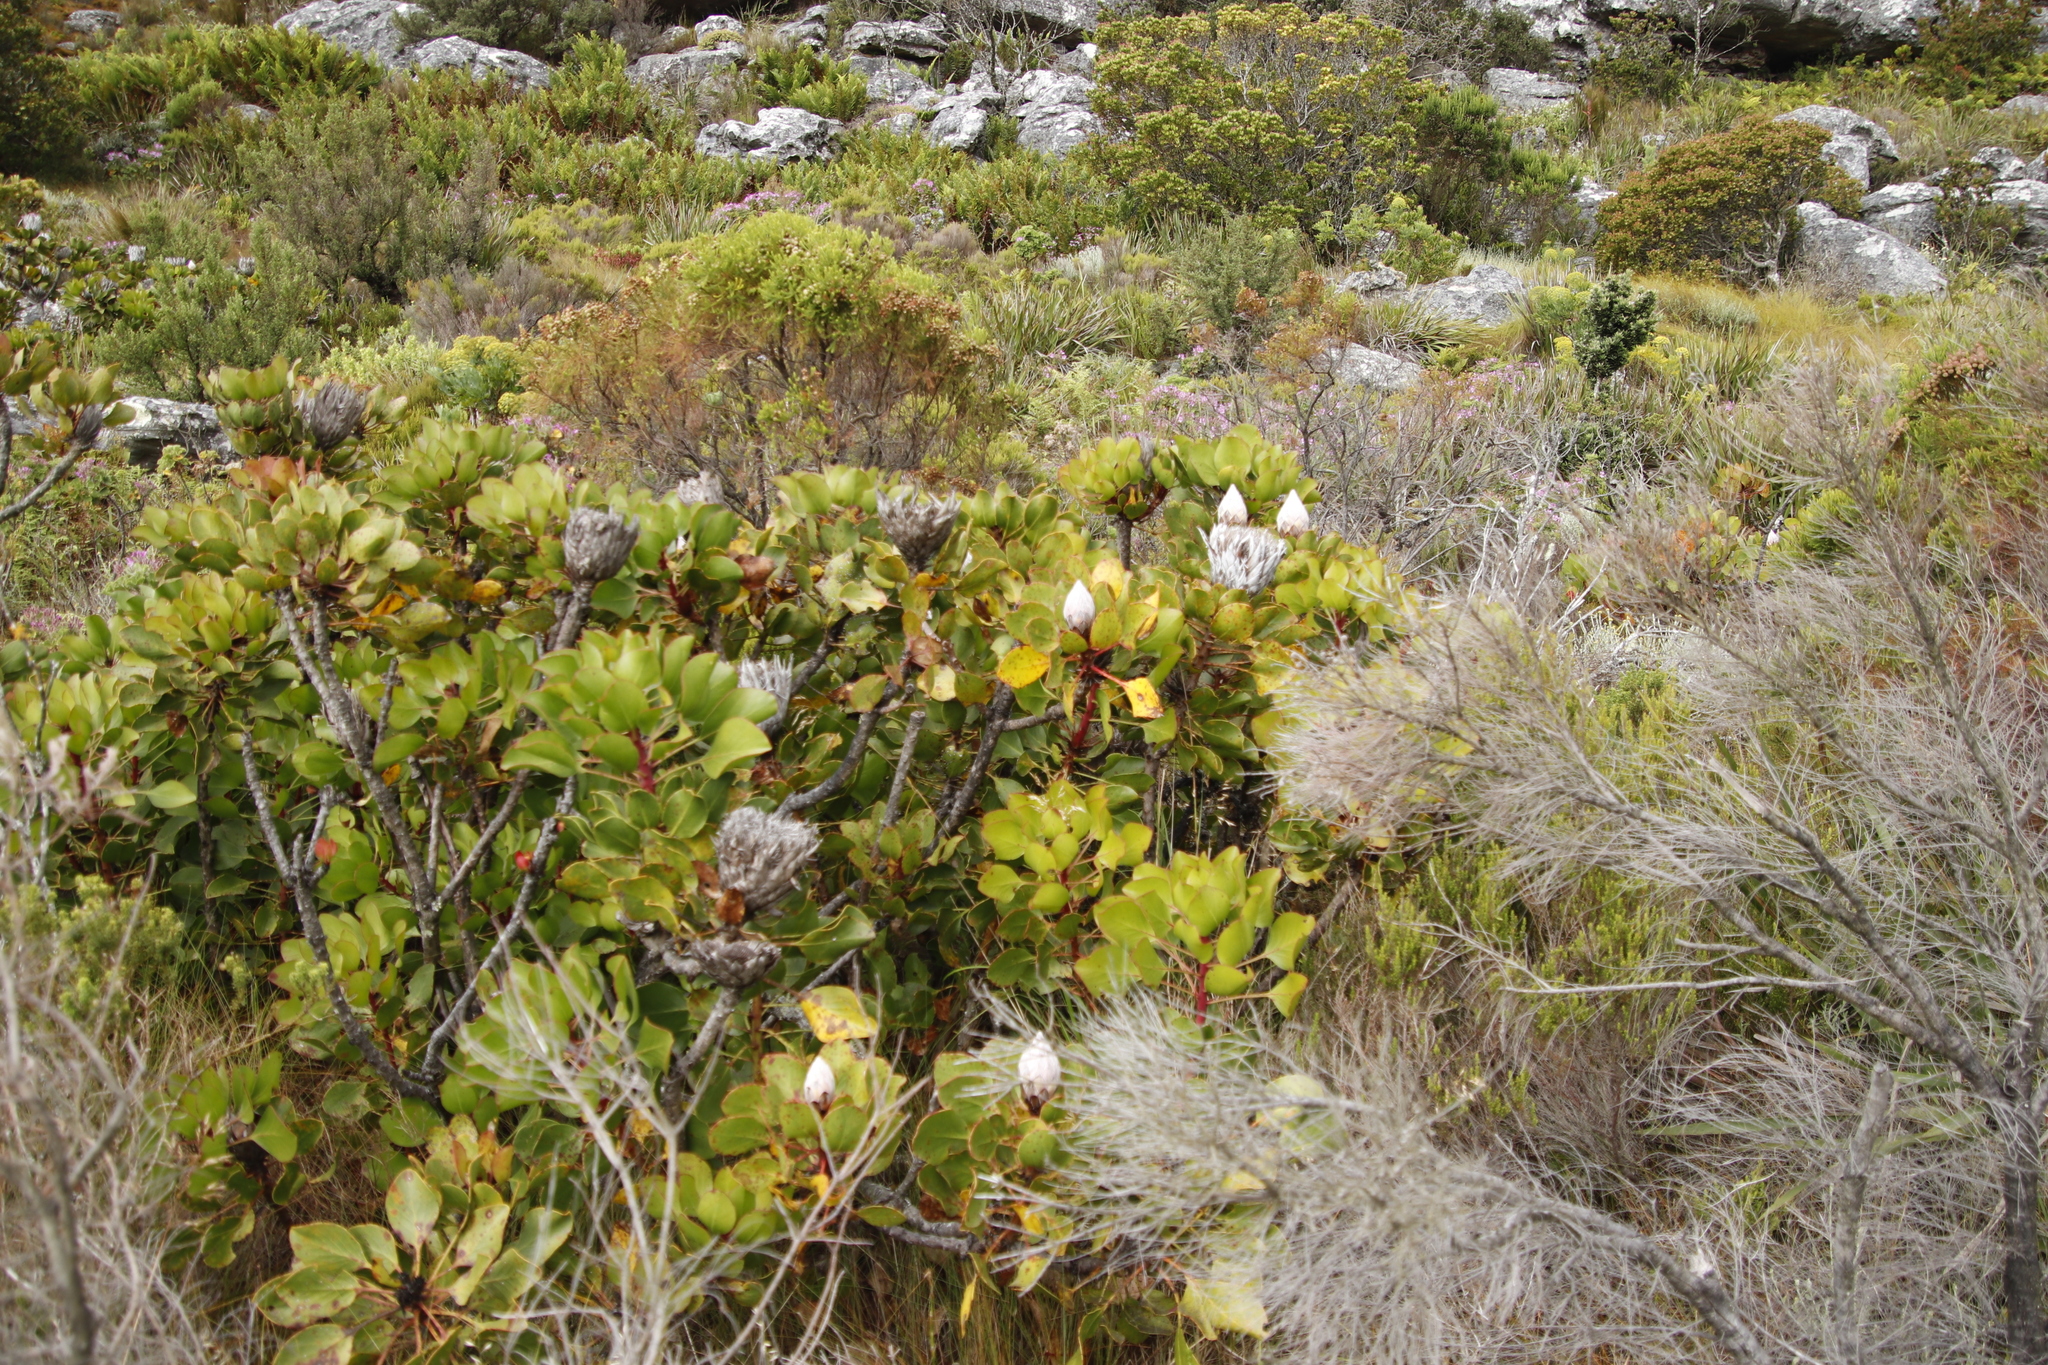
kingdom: Plantae
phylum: Tracheophyta
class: Magnoliopsida
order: Proteales
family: Proteaceae
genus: Protea
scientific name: Protea cynaroides
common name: King protea
